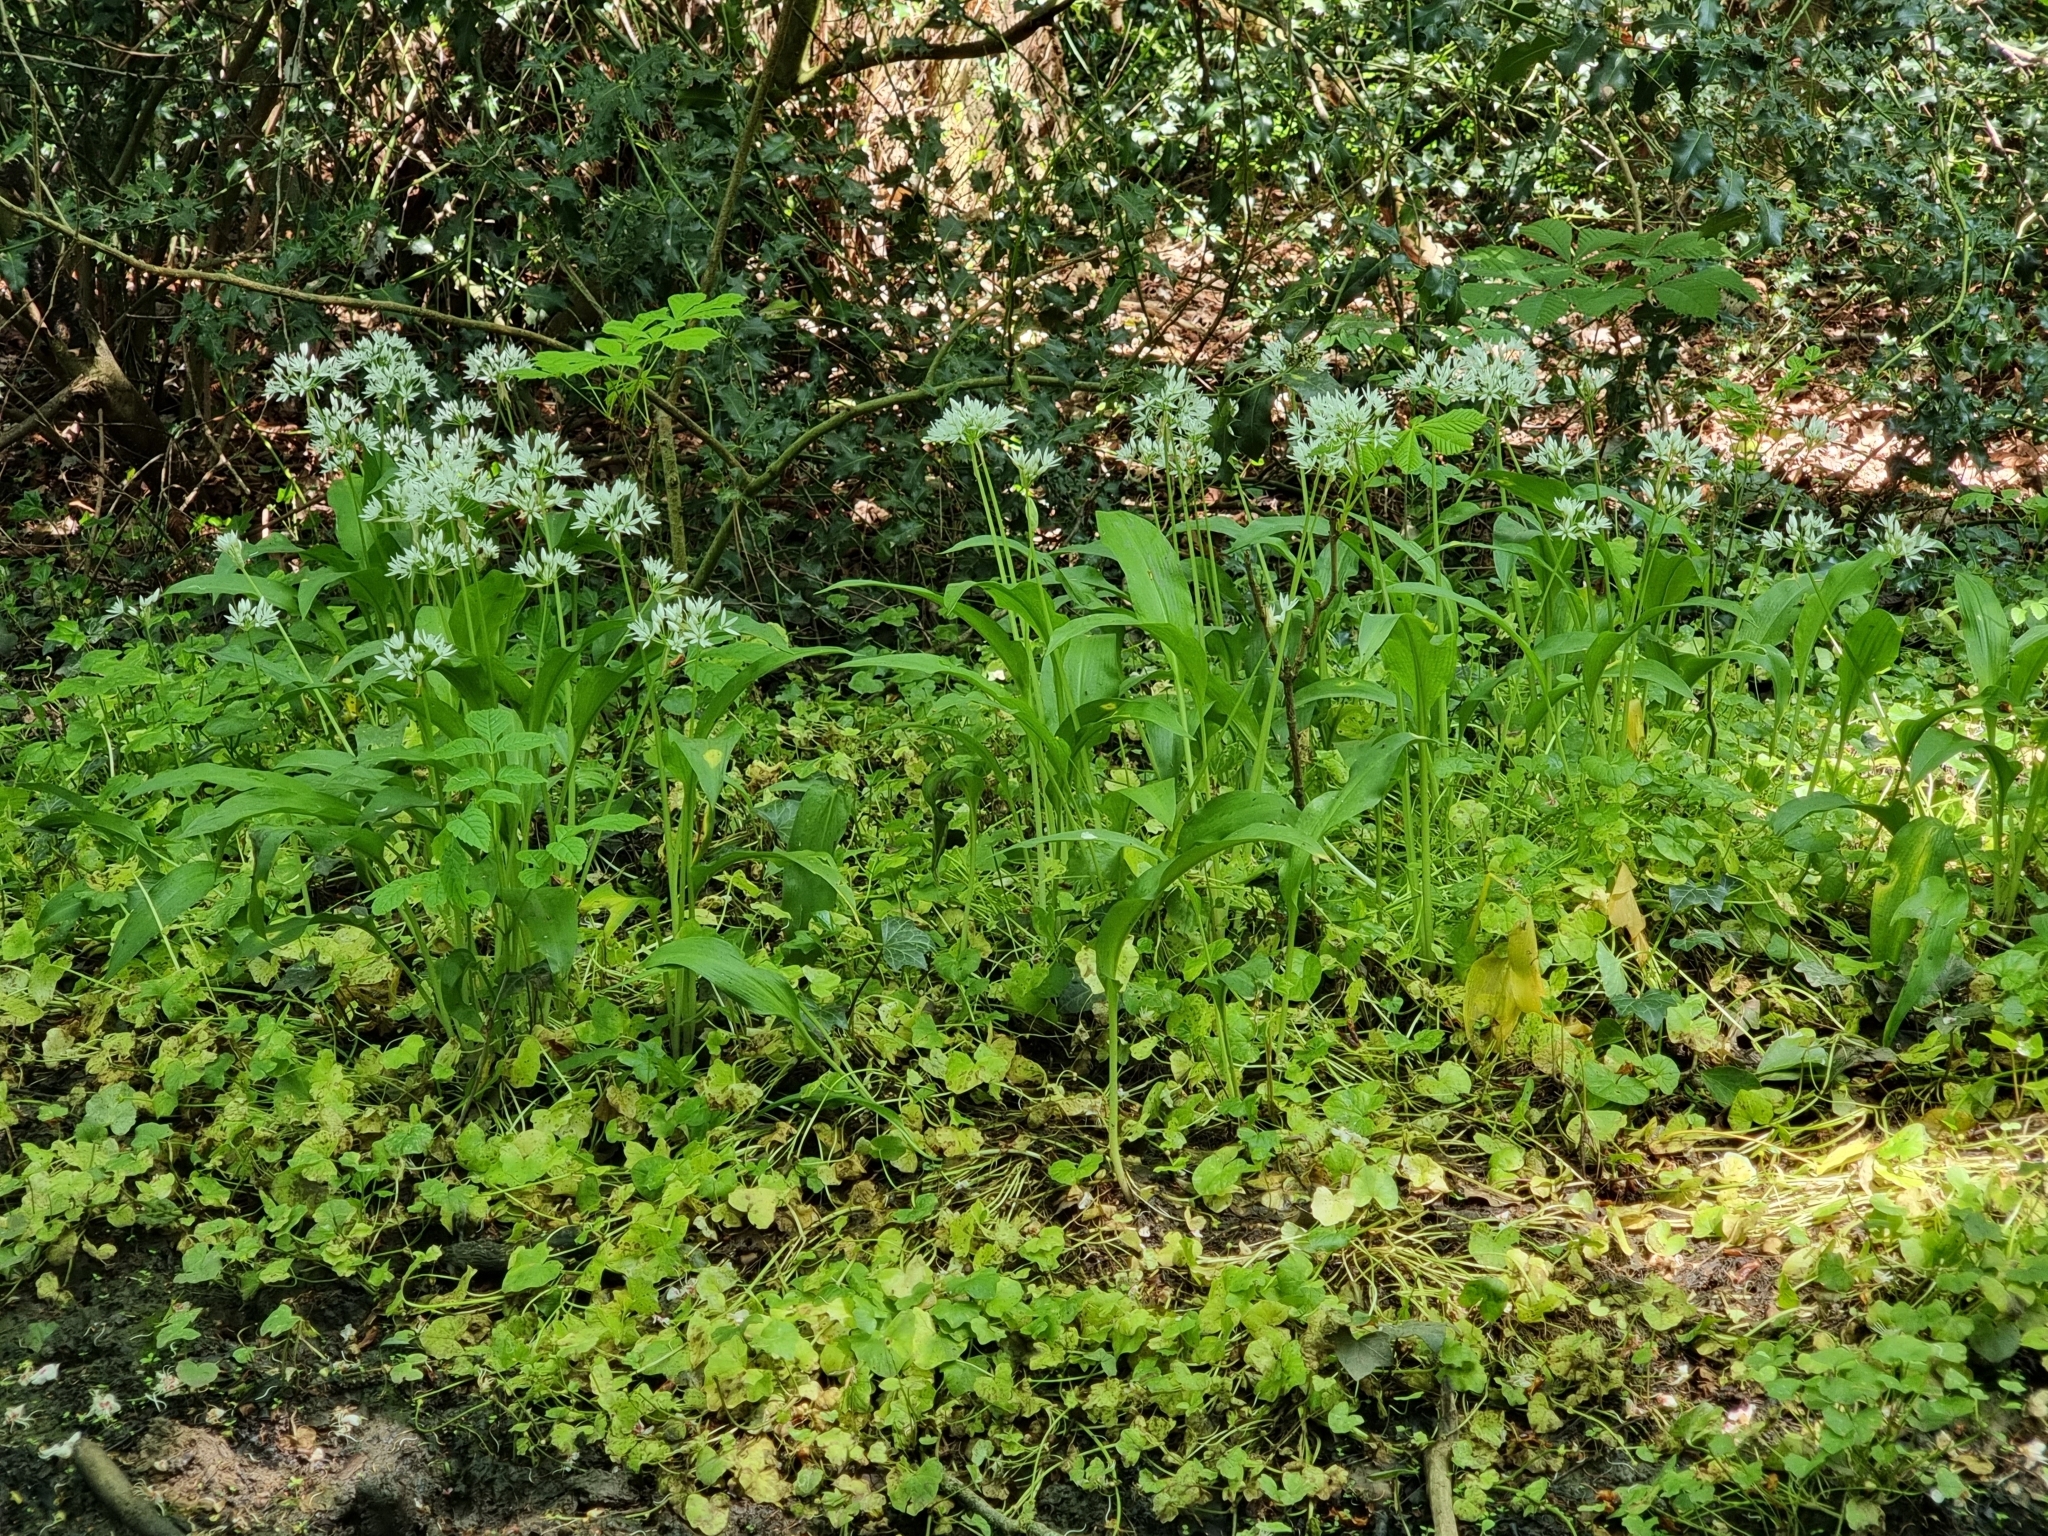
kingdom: Plantae
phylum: Tracheophyta
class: Liliopsida
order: Asparagales
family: Amaryllidaceae
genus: Allium
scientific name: Allium ursinum
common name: Ramsons
